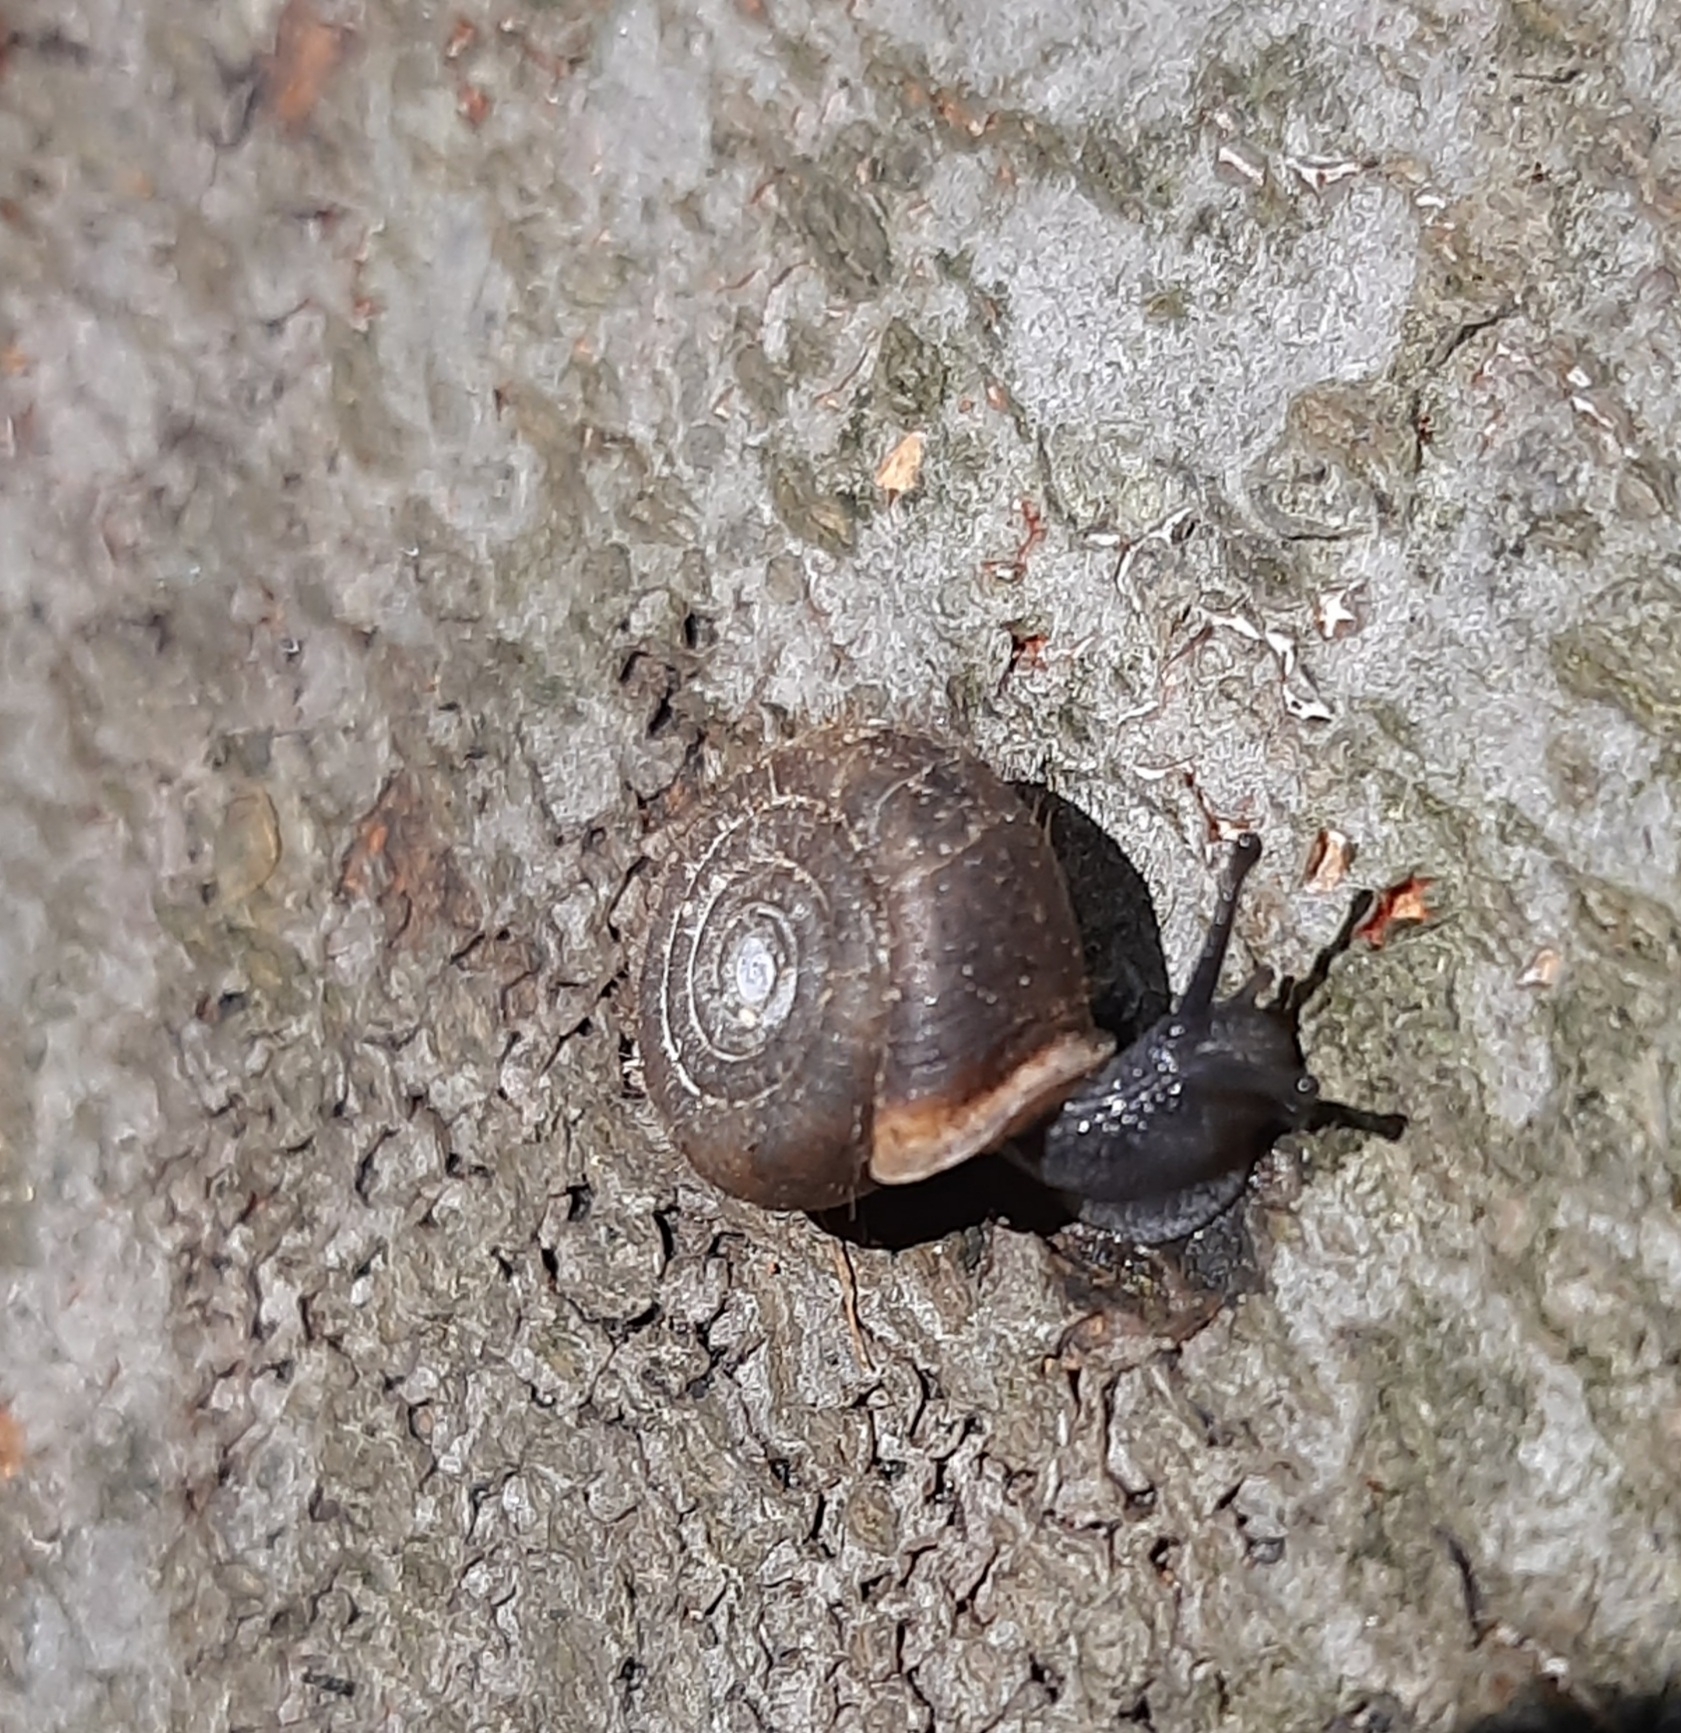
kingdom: Animalia
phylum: Mollusca
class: Gastropoda
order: Stylommatophora
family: Helicodontidae
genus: Helicodonta
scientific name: Helicodonta obvoluta
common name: Cheese snail
